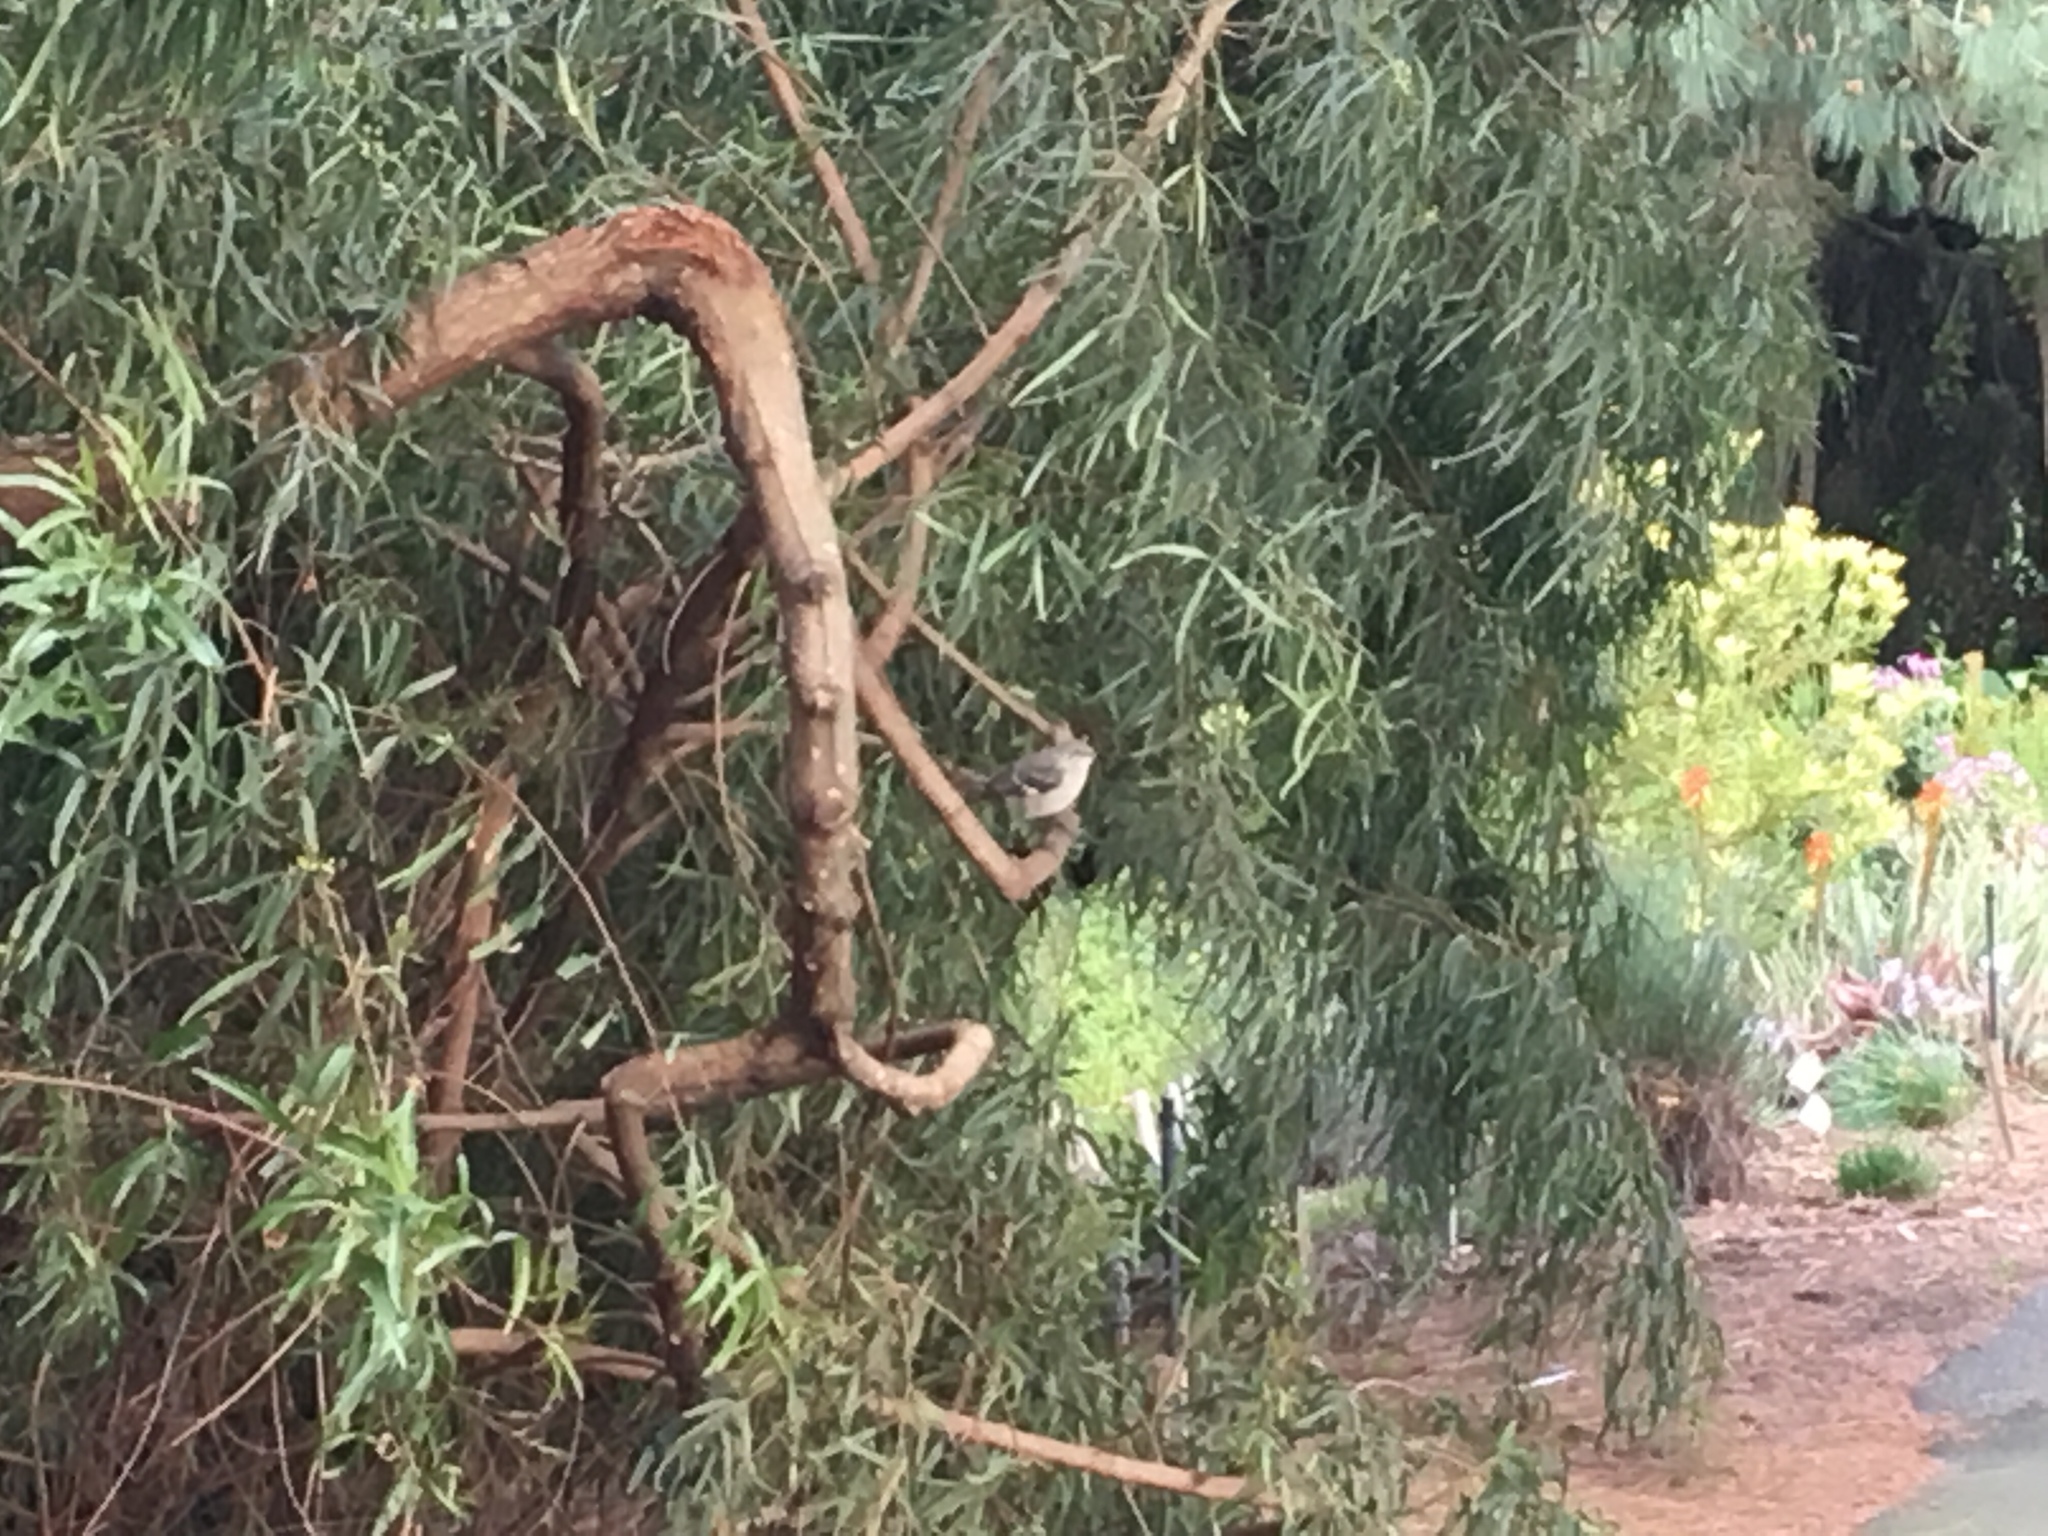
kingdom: Animalia
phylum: Chordata
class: Aves
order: Passeriformes
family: Mimidae
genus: Mimus
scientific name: Mimus polyglottos
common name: Northern mockingbird
